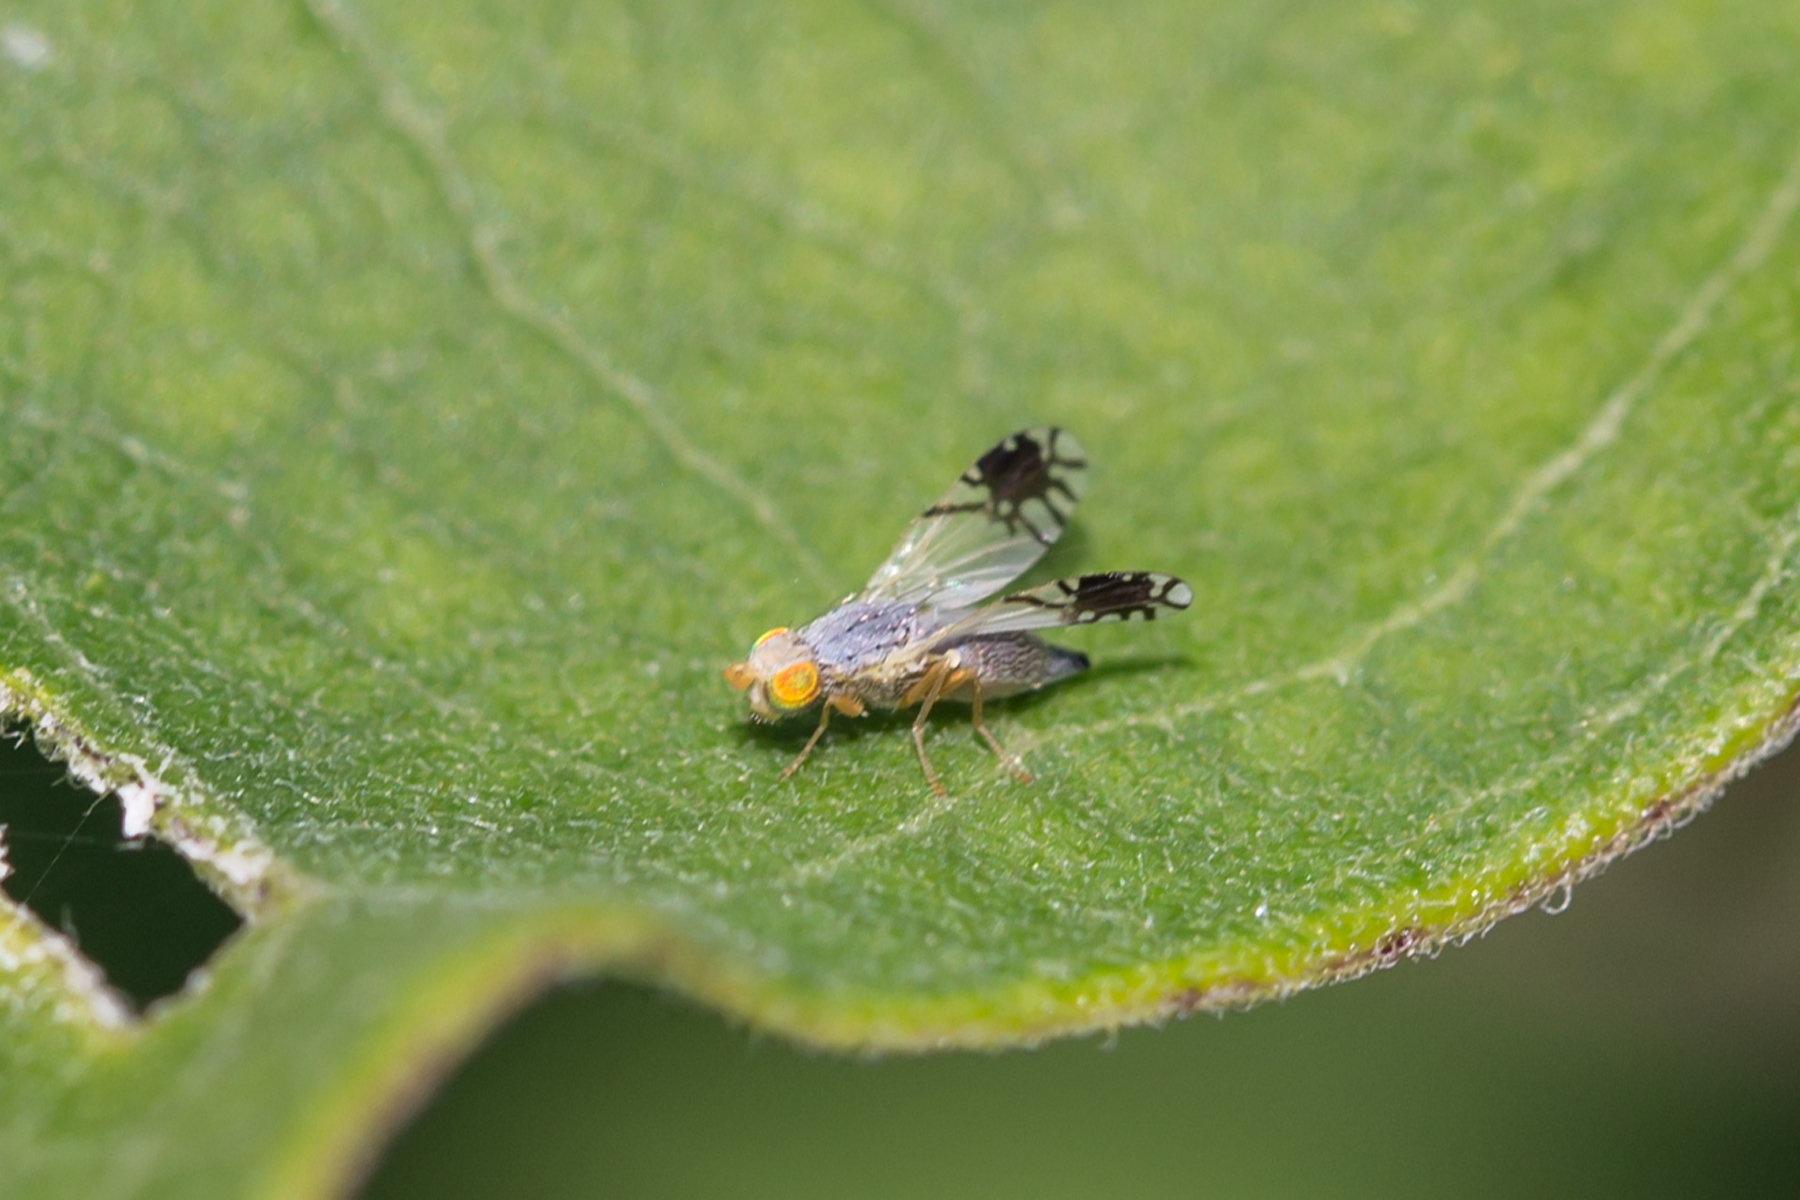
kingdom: Animalia
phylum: Arthropoda
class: Insecta
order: Diptera
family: Tephritidae
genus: Trupanea
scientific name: Trupanea actinobola
